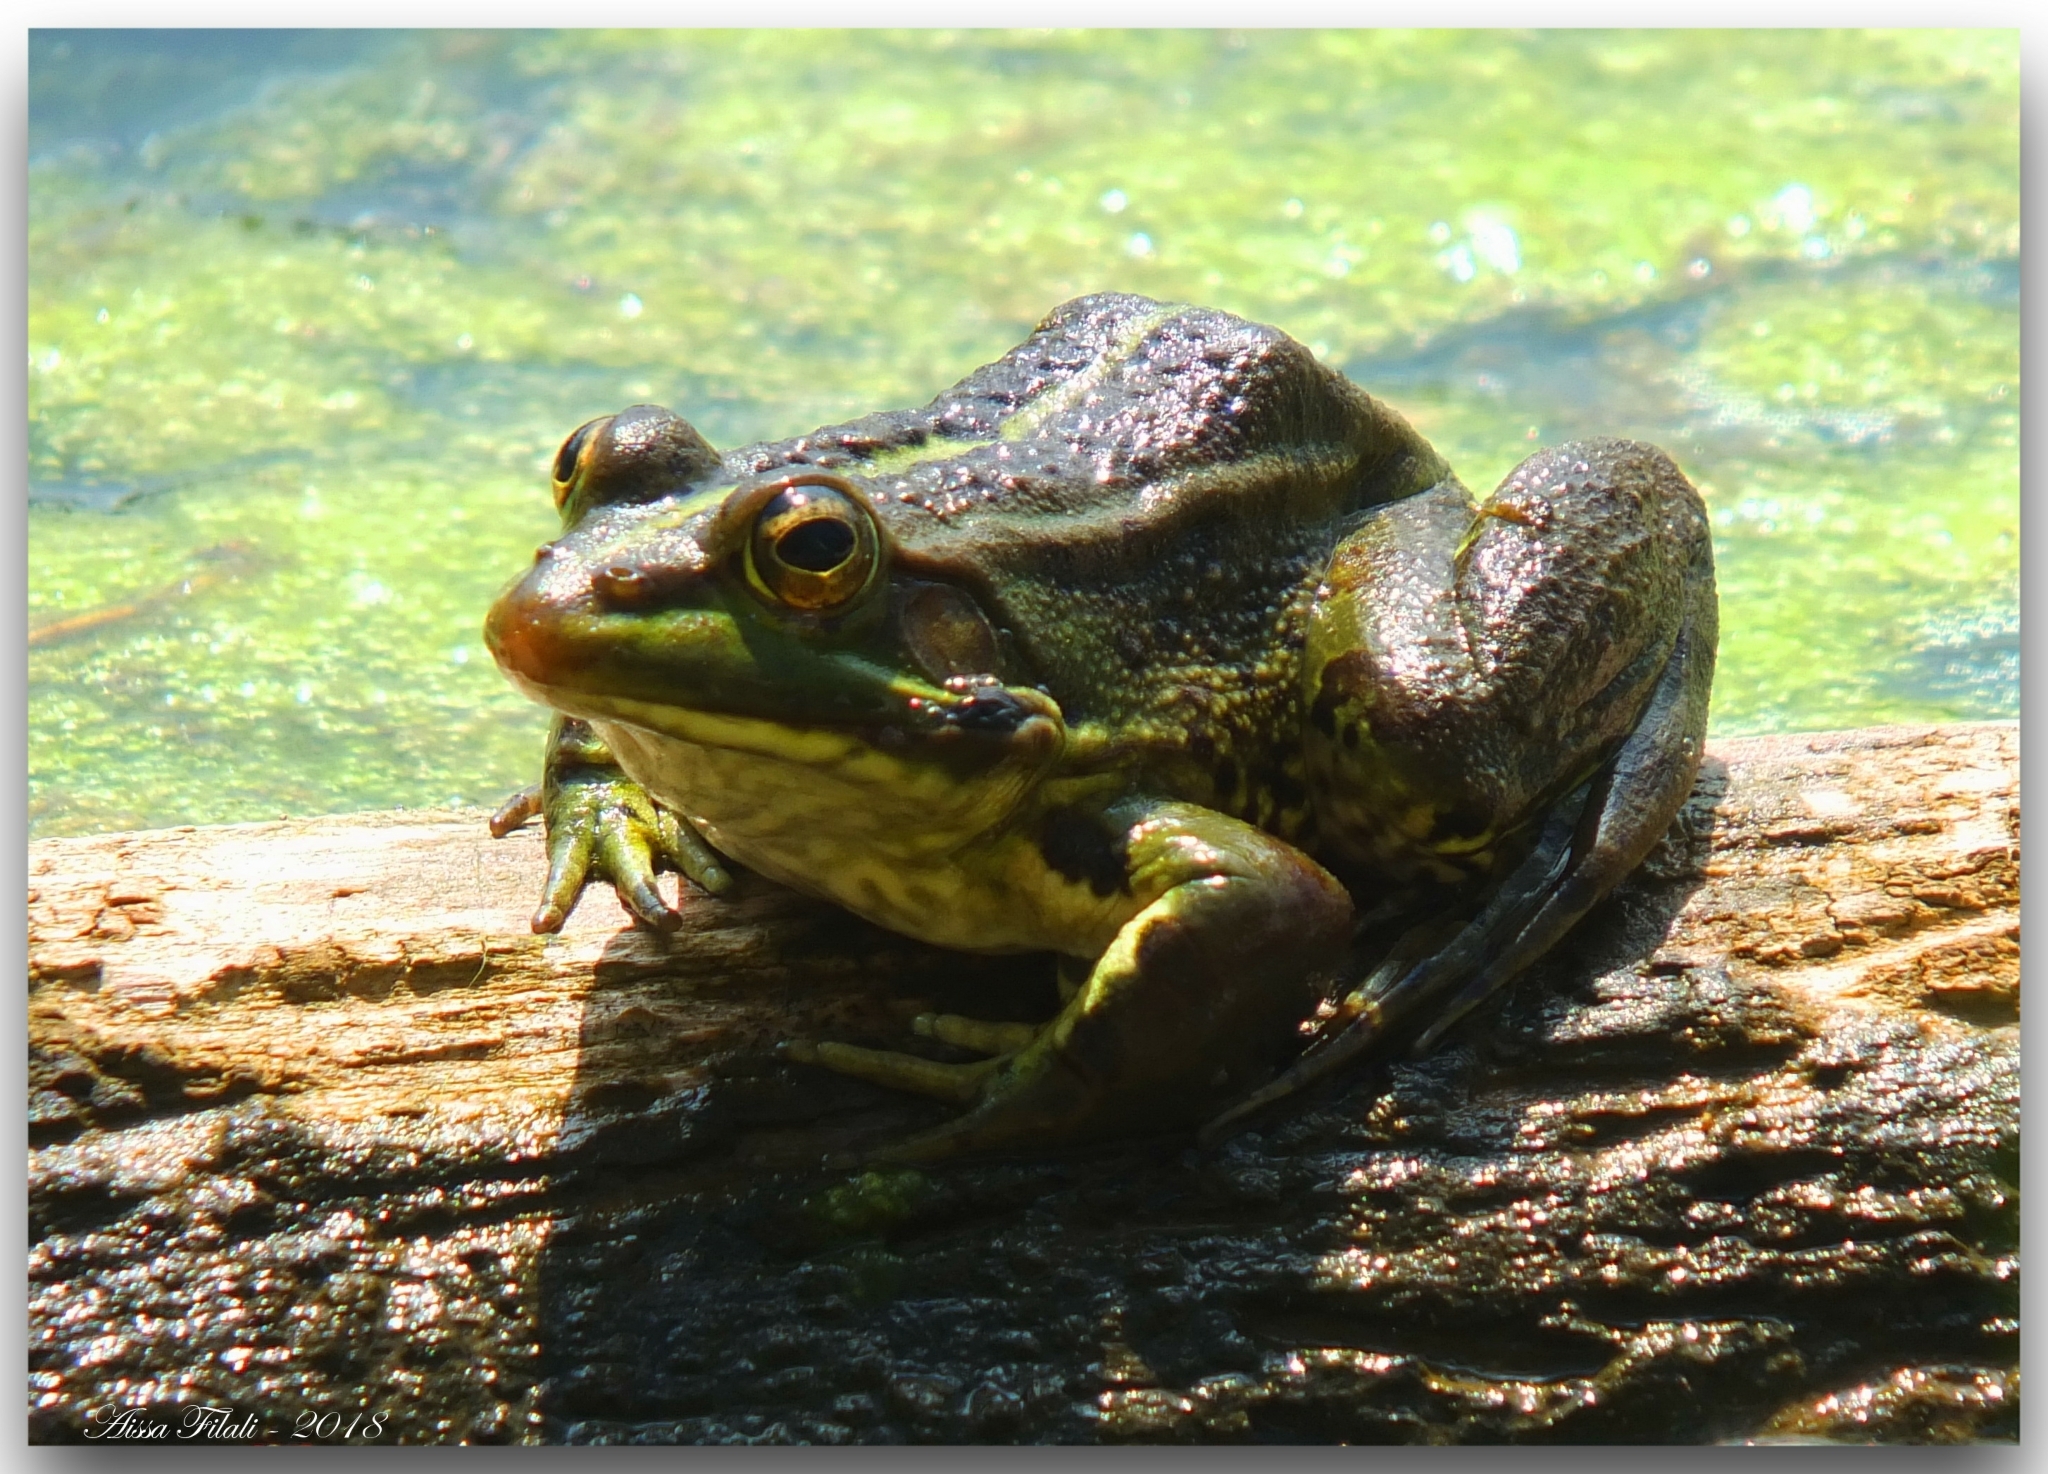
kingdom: Animalia
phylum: Chordata
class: Amphibia
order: Anura
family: Ranidae
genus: Pelophylax
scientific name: Pelophylax saharicus
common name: Sahara frog
